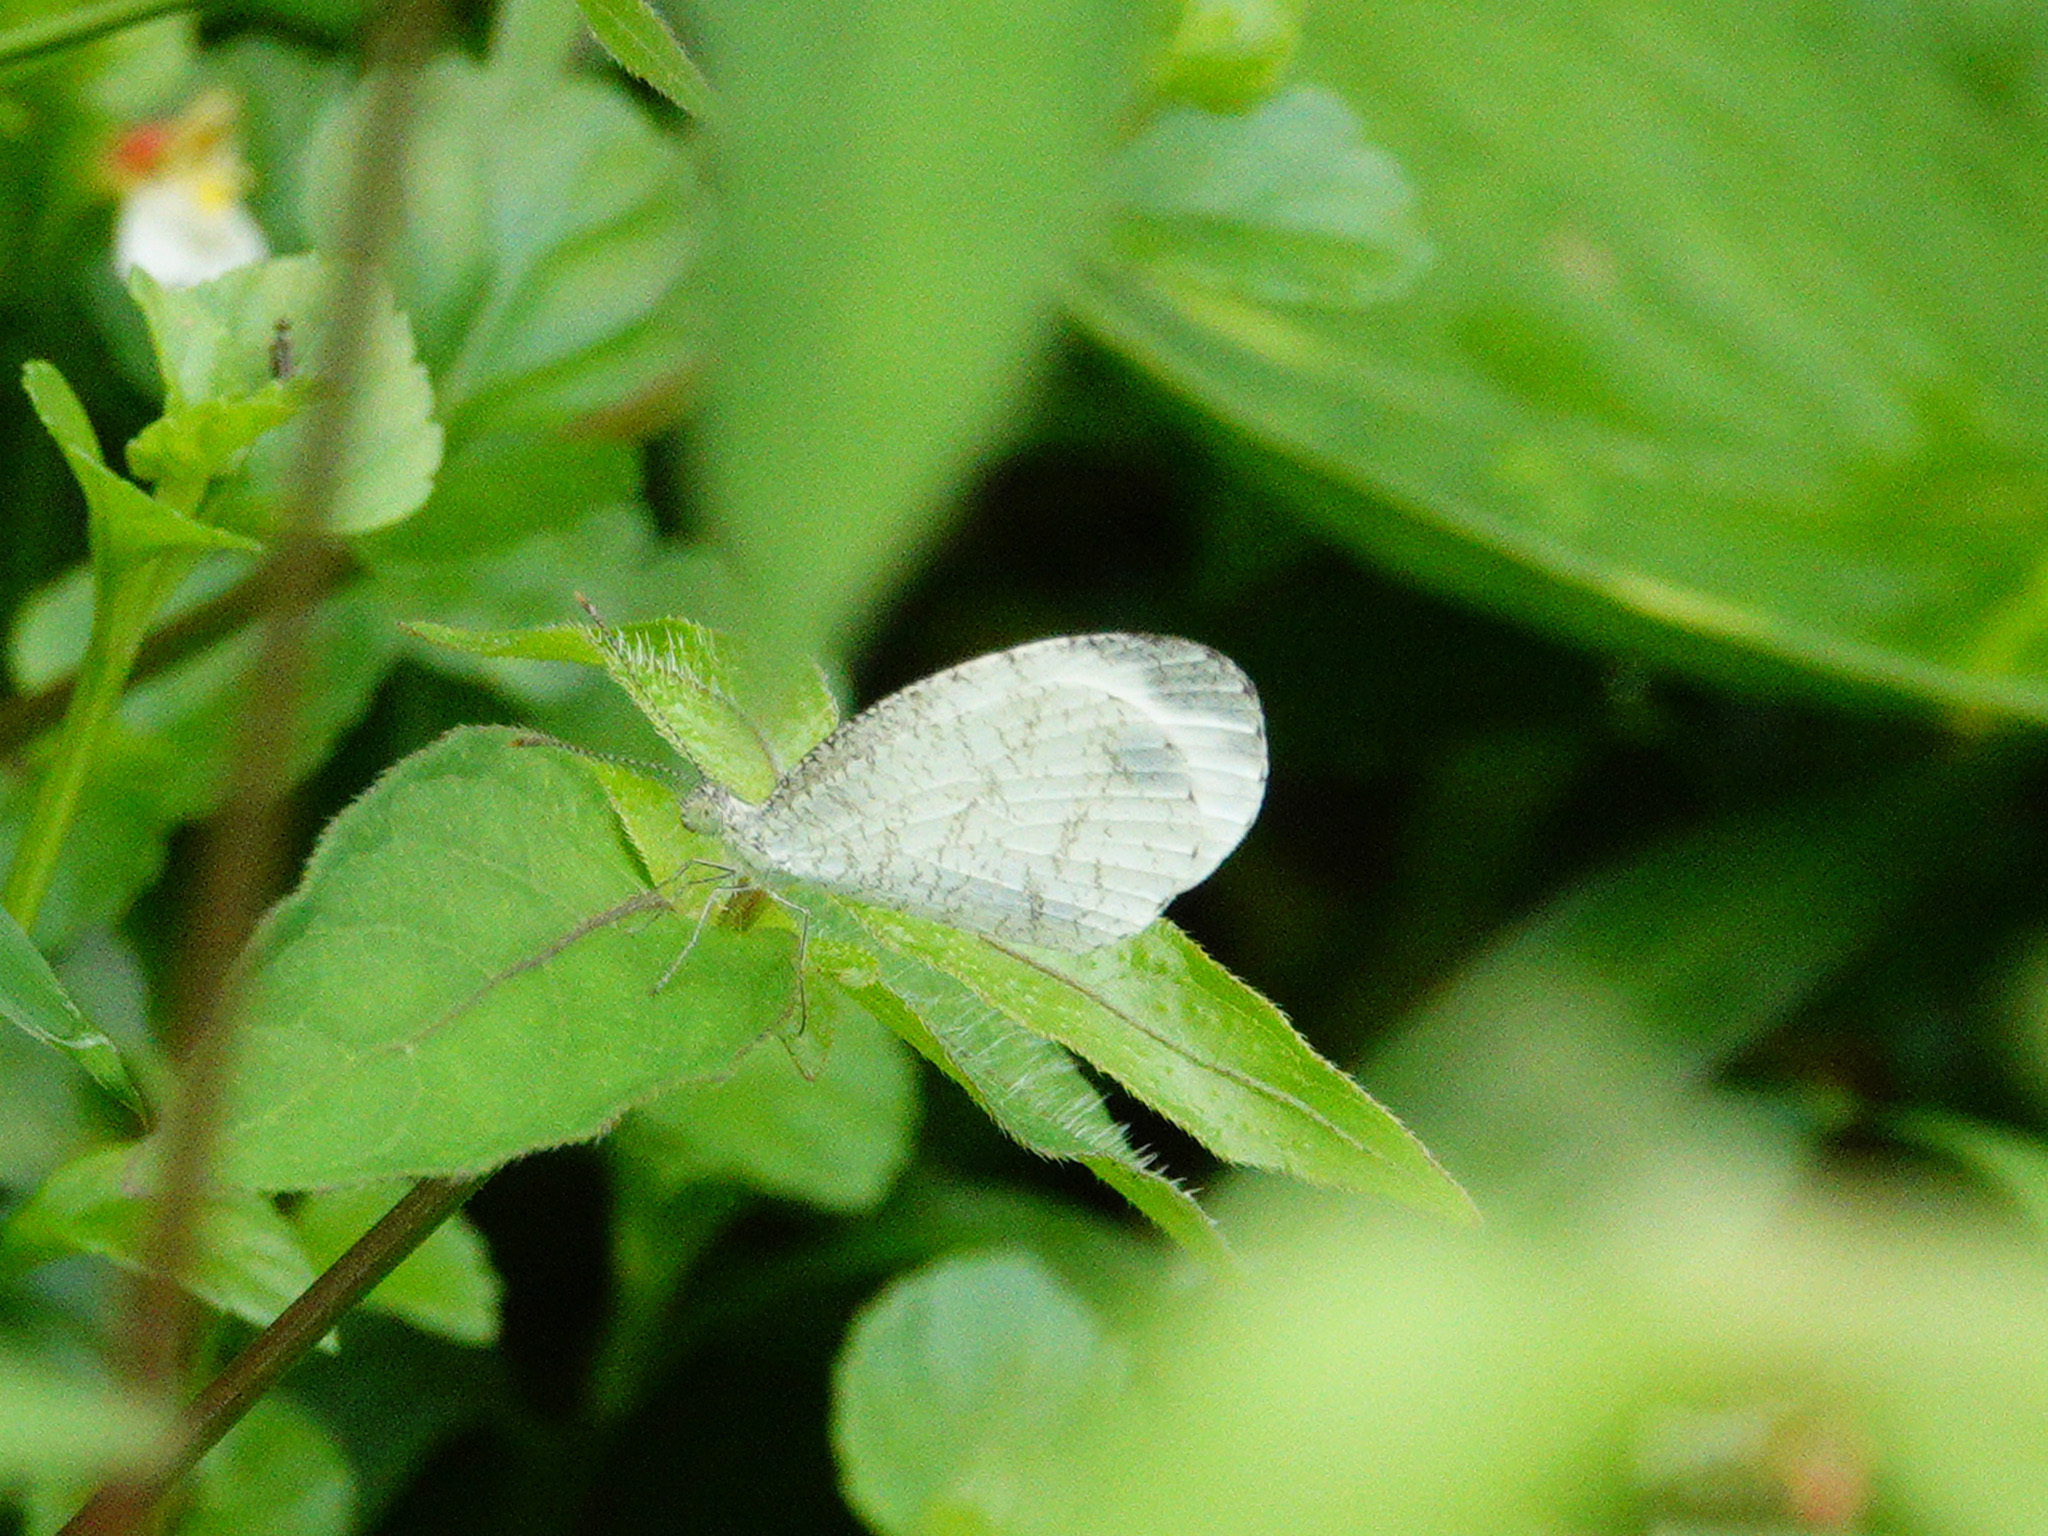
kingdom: Animalia
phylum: Arthropoda
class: Insecta
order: Lepidoptera
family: Pieridae
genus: Leptosia
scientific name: Leptosia nina
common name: Psyche
